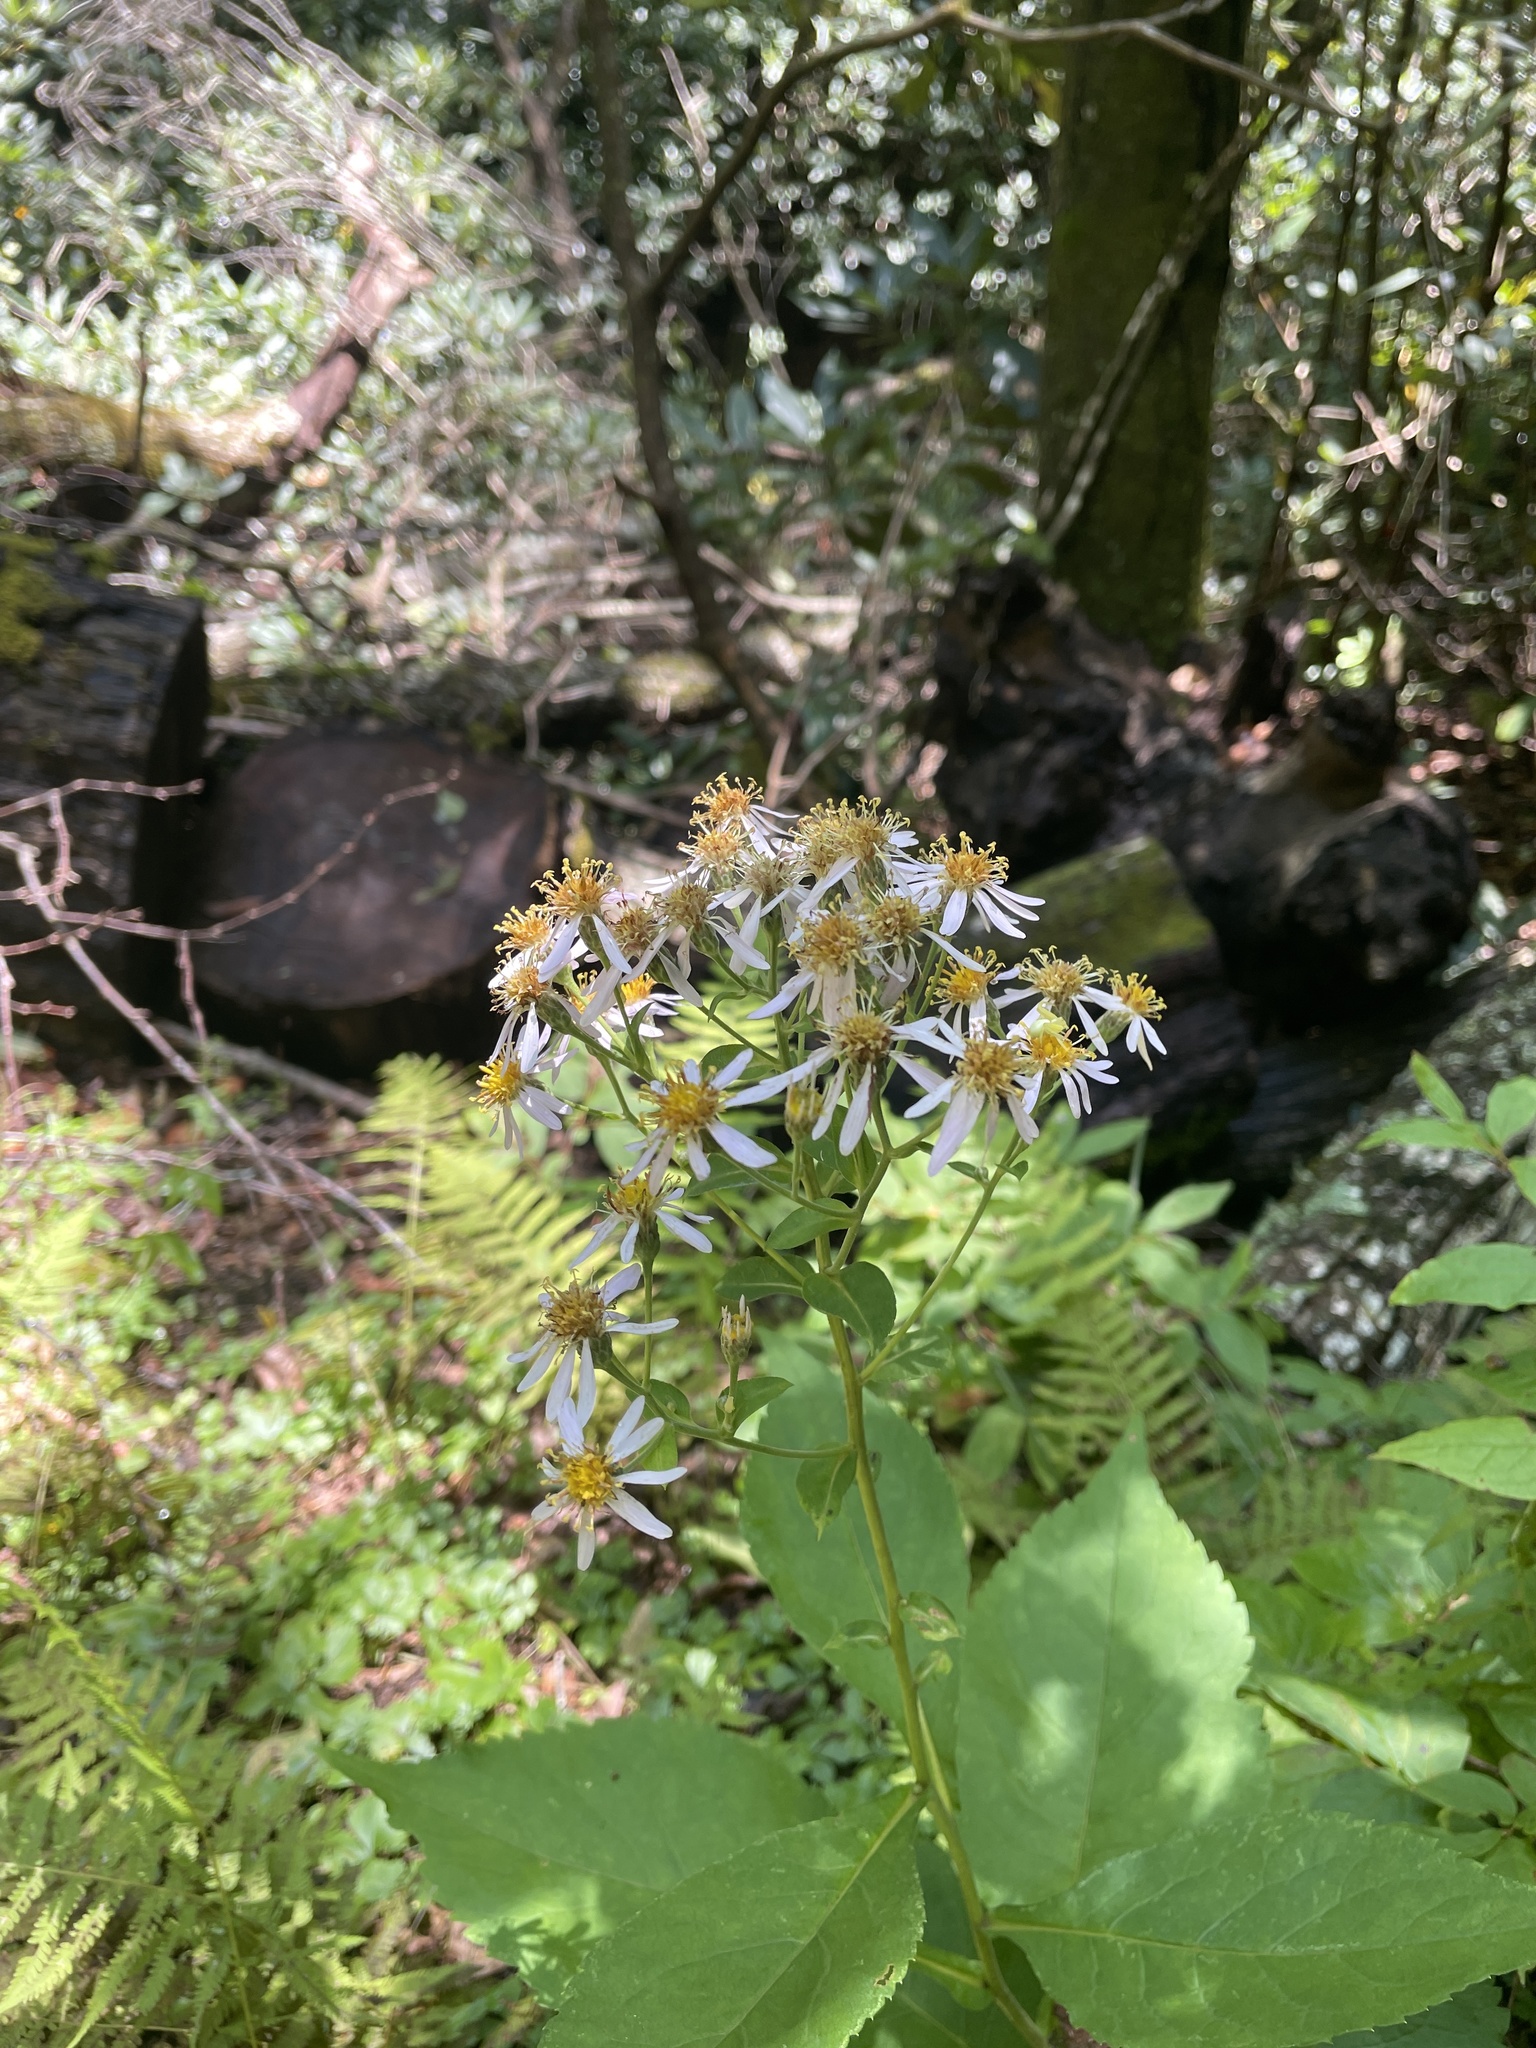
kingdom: Plantae
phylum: Tracheophyta
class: Magnoliopsida
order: Asterales
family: Asteraceae
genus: Eurybia
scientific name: Eurybia macrophylla
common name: Big-leaved aster
